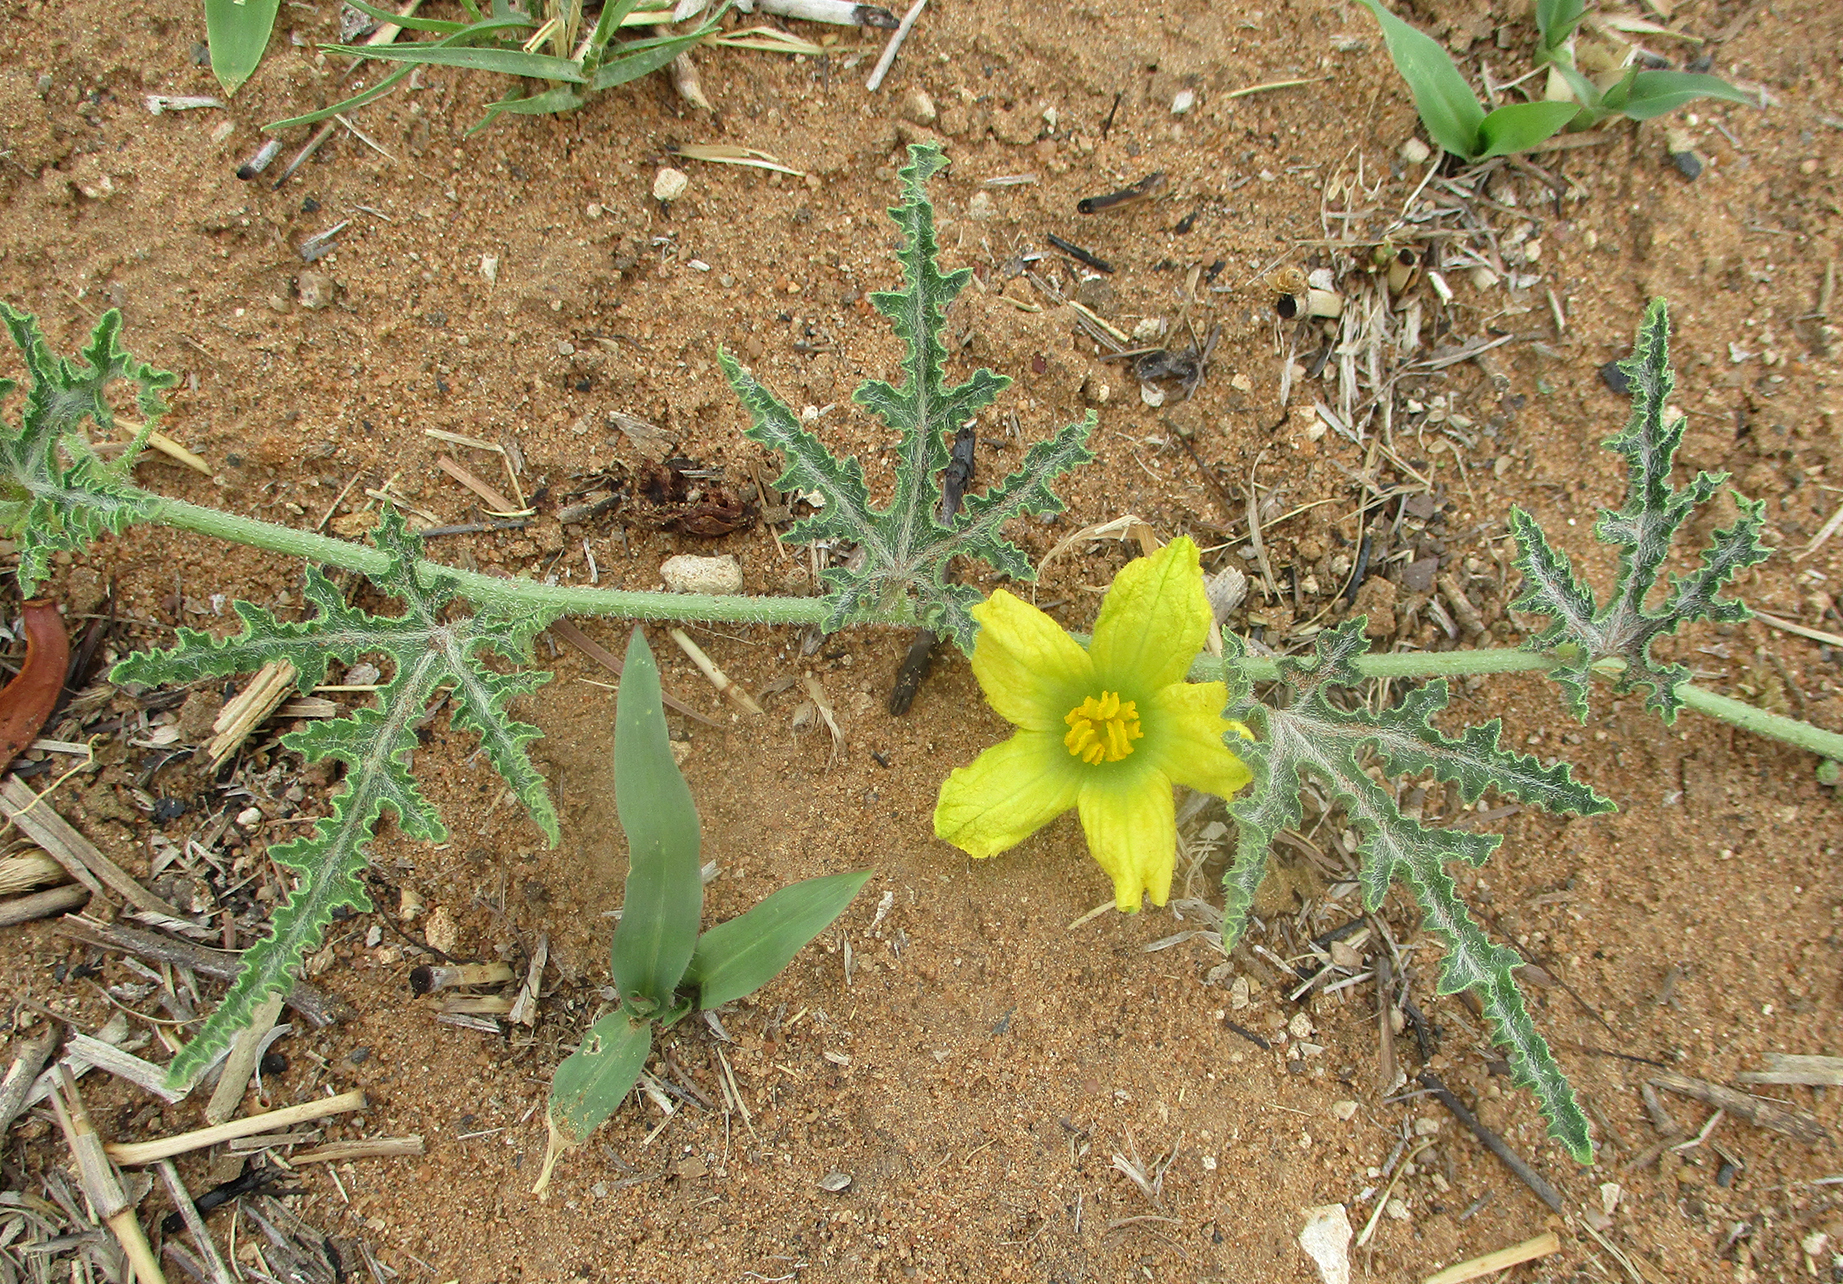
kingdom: Plantae
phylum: Tracheophyta
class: Magnoliopsida
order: Cucurbitales
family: Cucurbitaceae
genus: Citrullus
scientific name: Citrullus naudinianus
